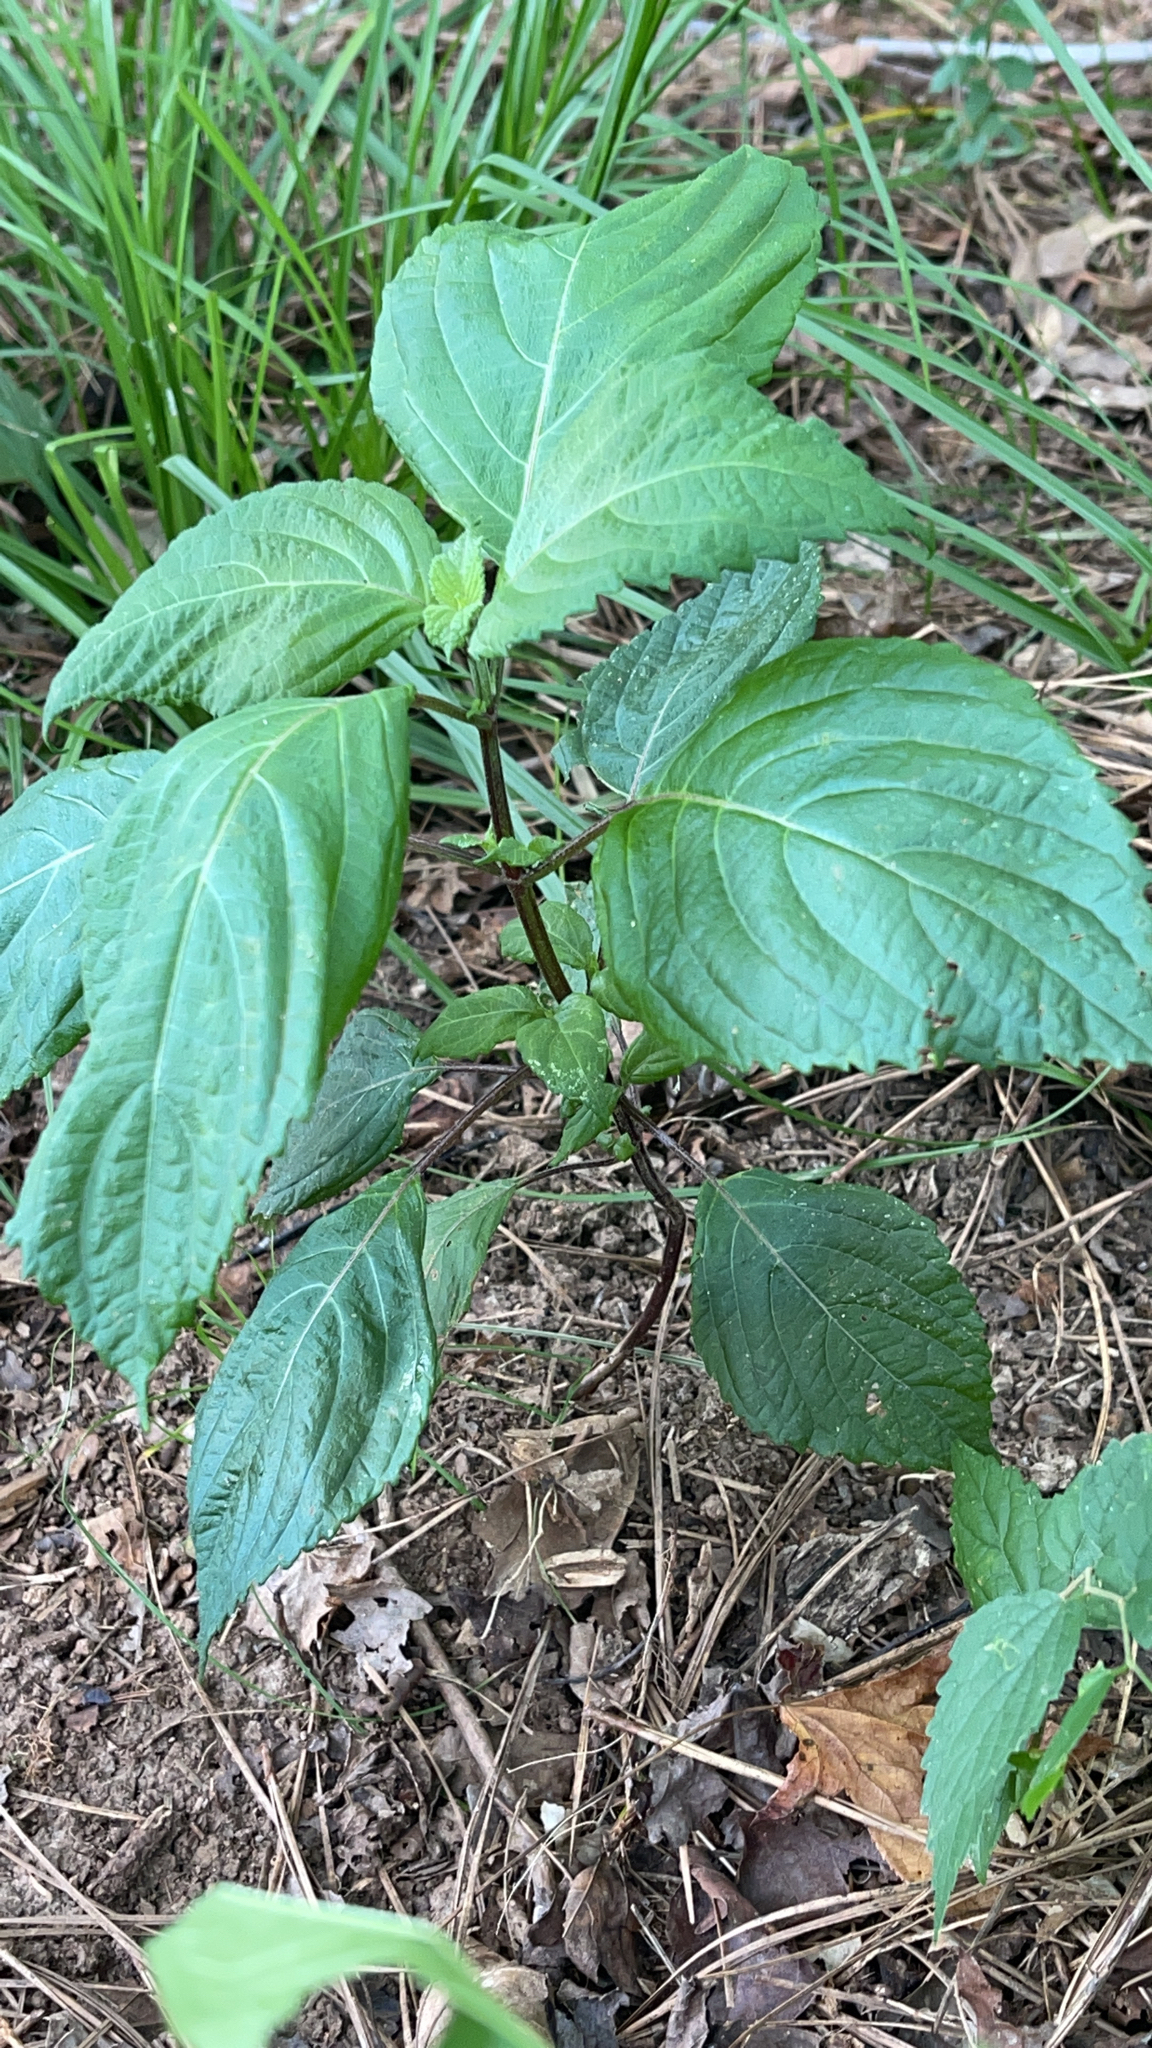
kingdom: Plantae
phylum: Tracheophyta
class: Magnoliopsida
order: Lamiales
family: Lamiaceae
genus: Perilla
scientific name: Perilla frutescens
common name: Perilla
